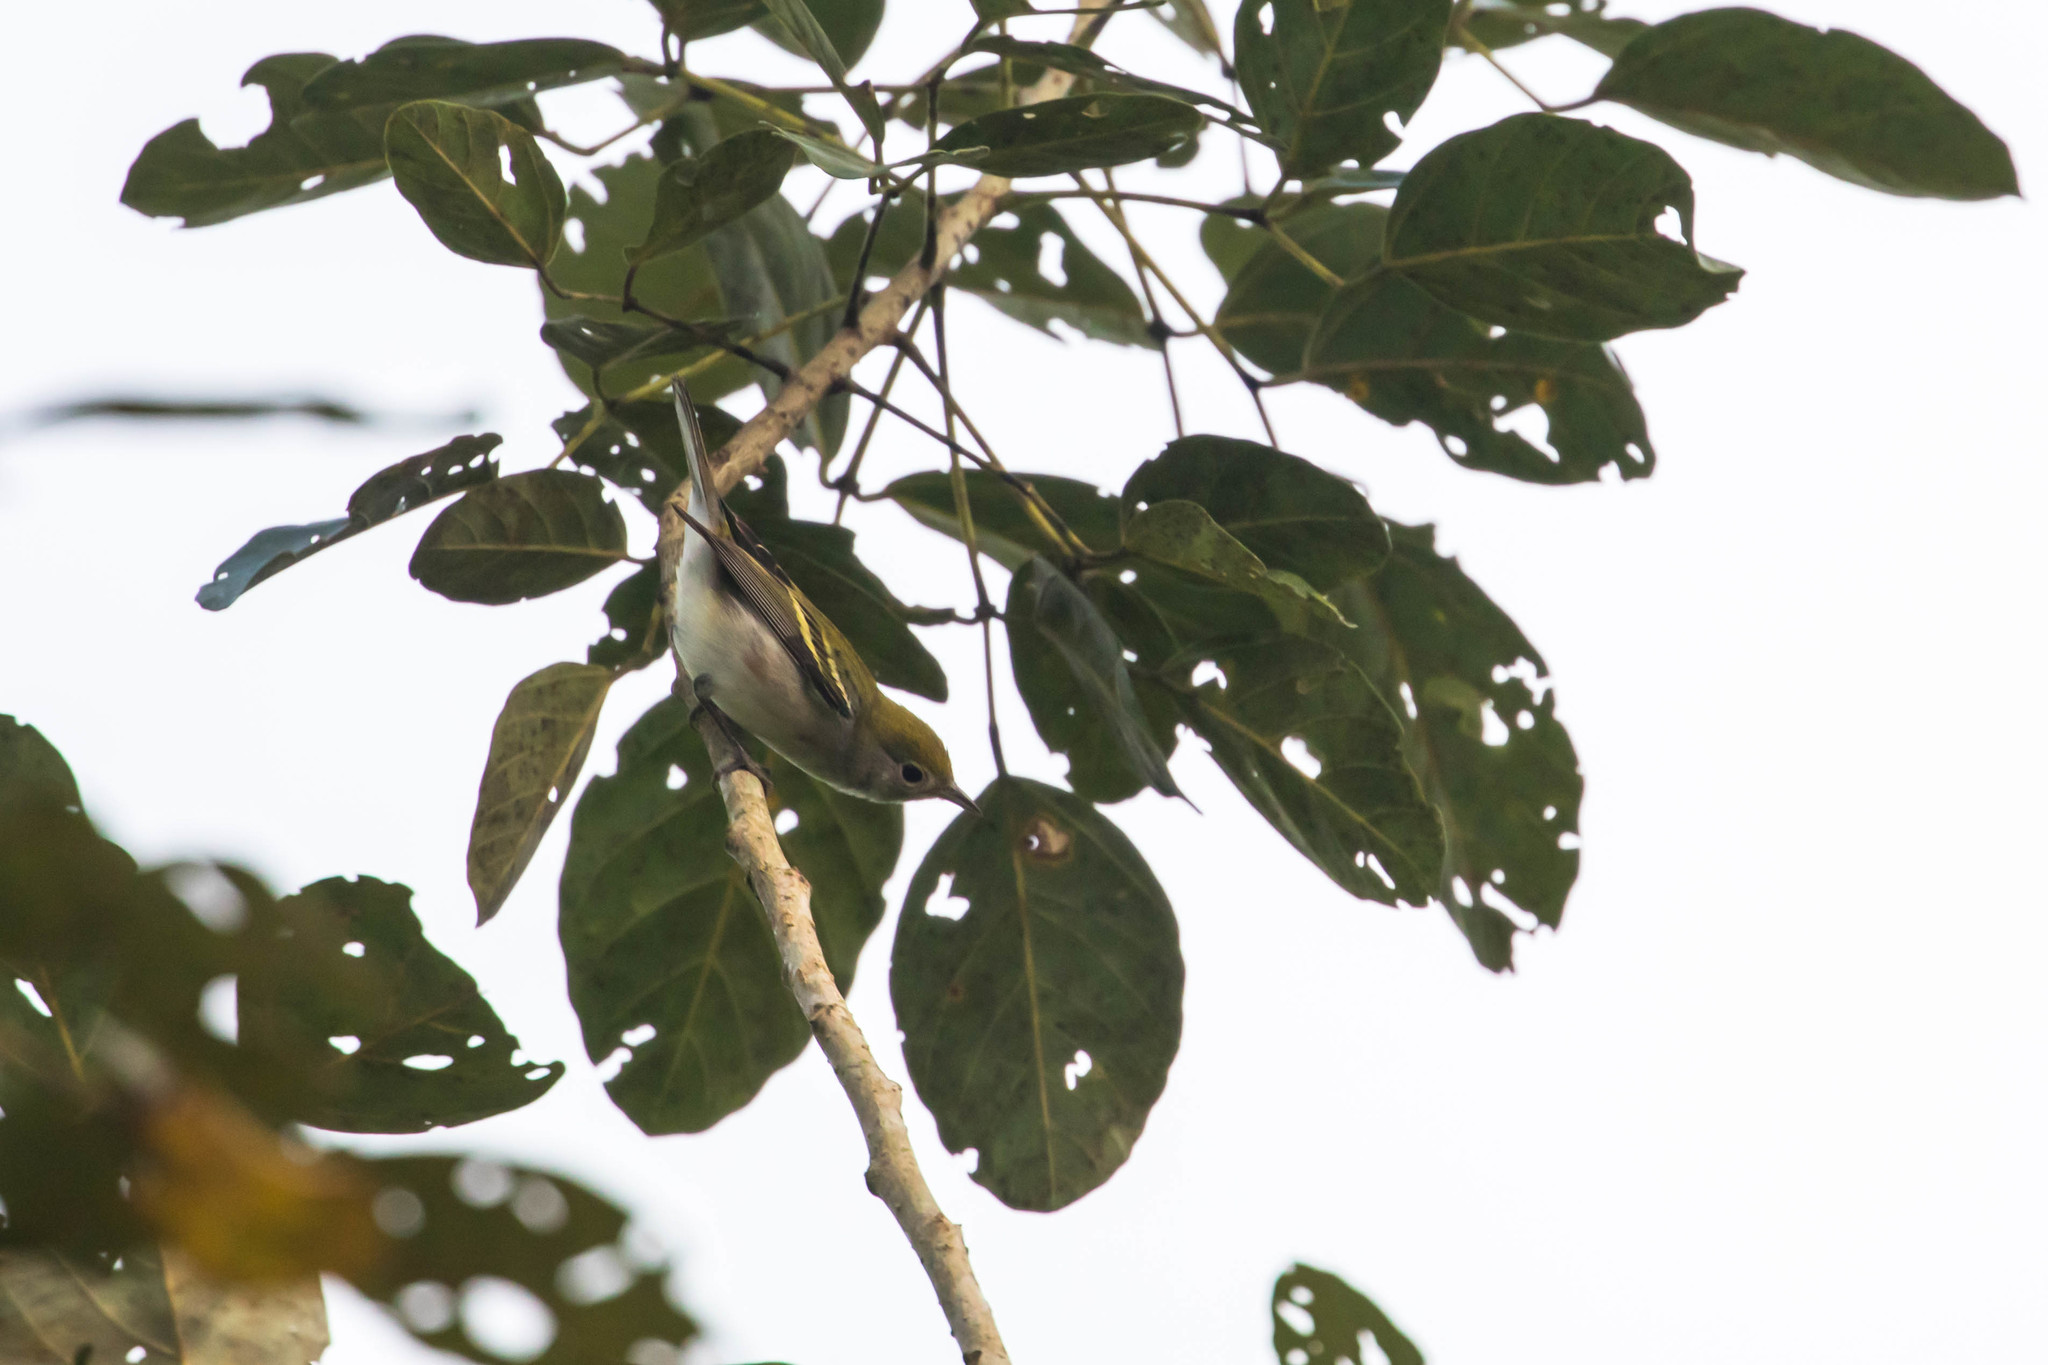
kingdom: Animalia
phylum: Chordata
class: Aves
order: Passeriformes
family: Parulidae
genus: Setophaga
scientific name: Setophaga pensylvanica
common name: Chestnut-sided warbler
